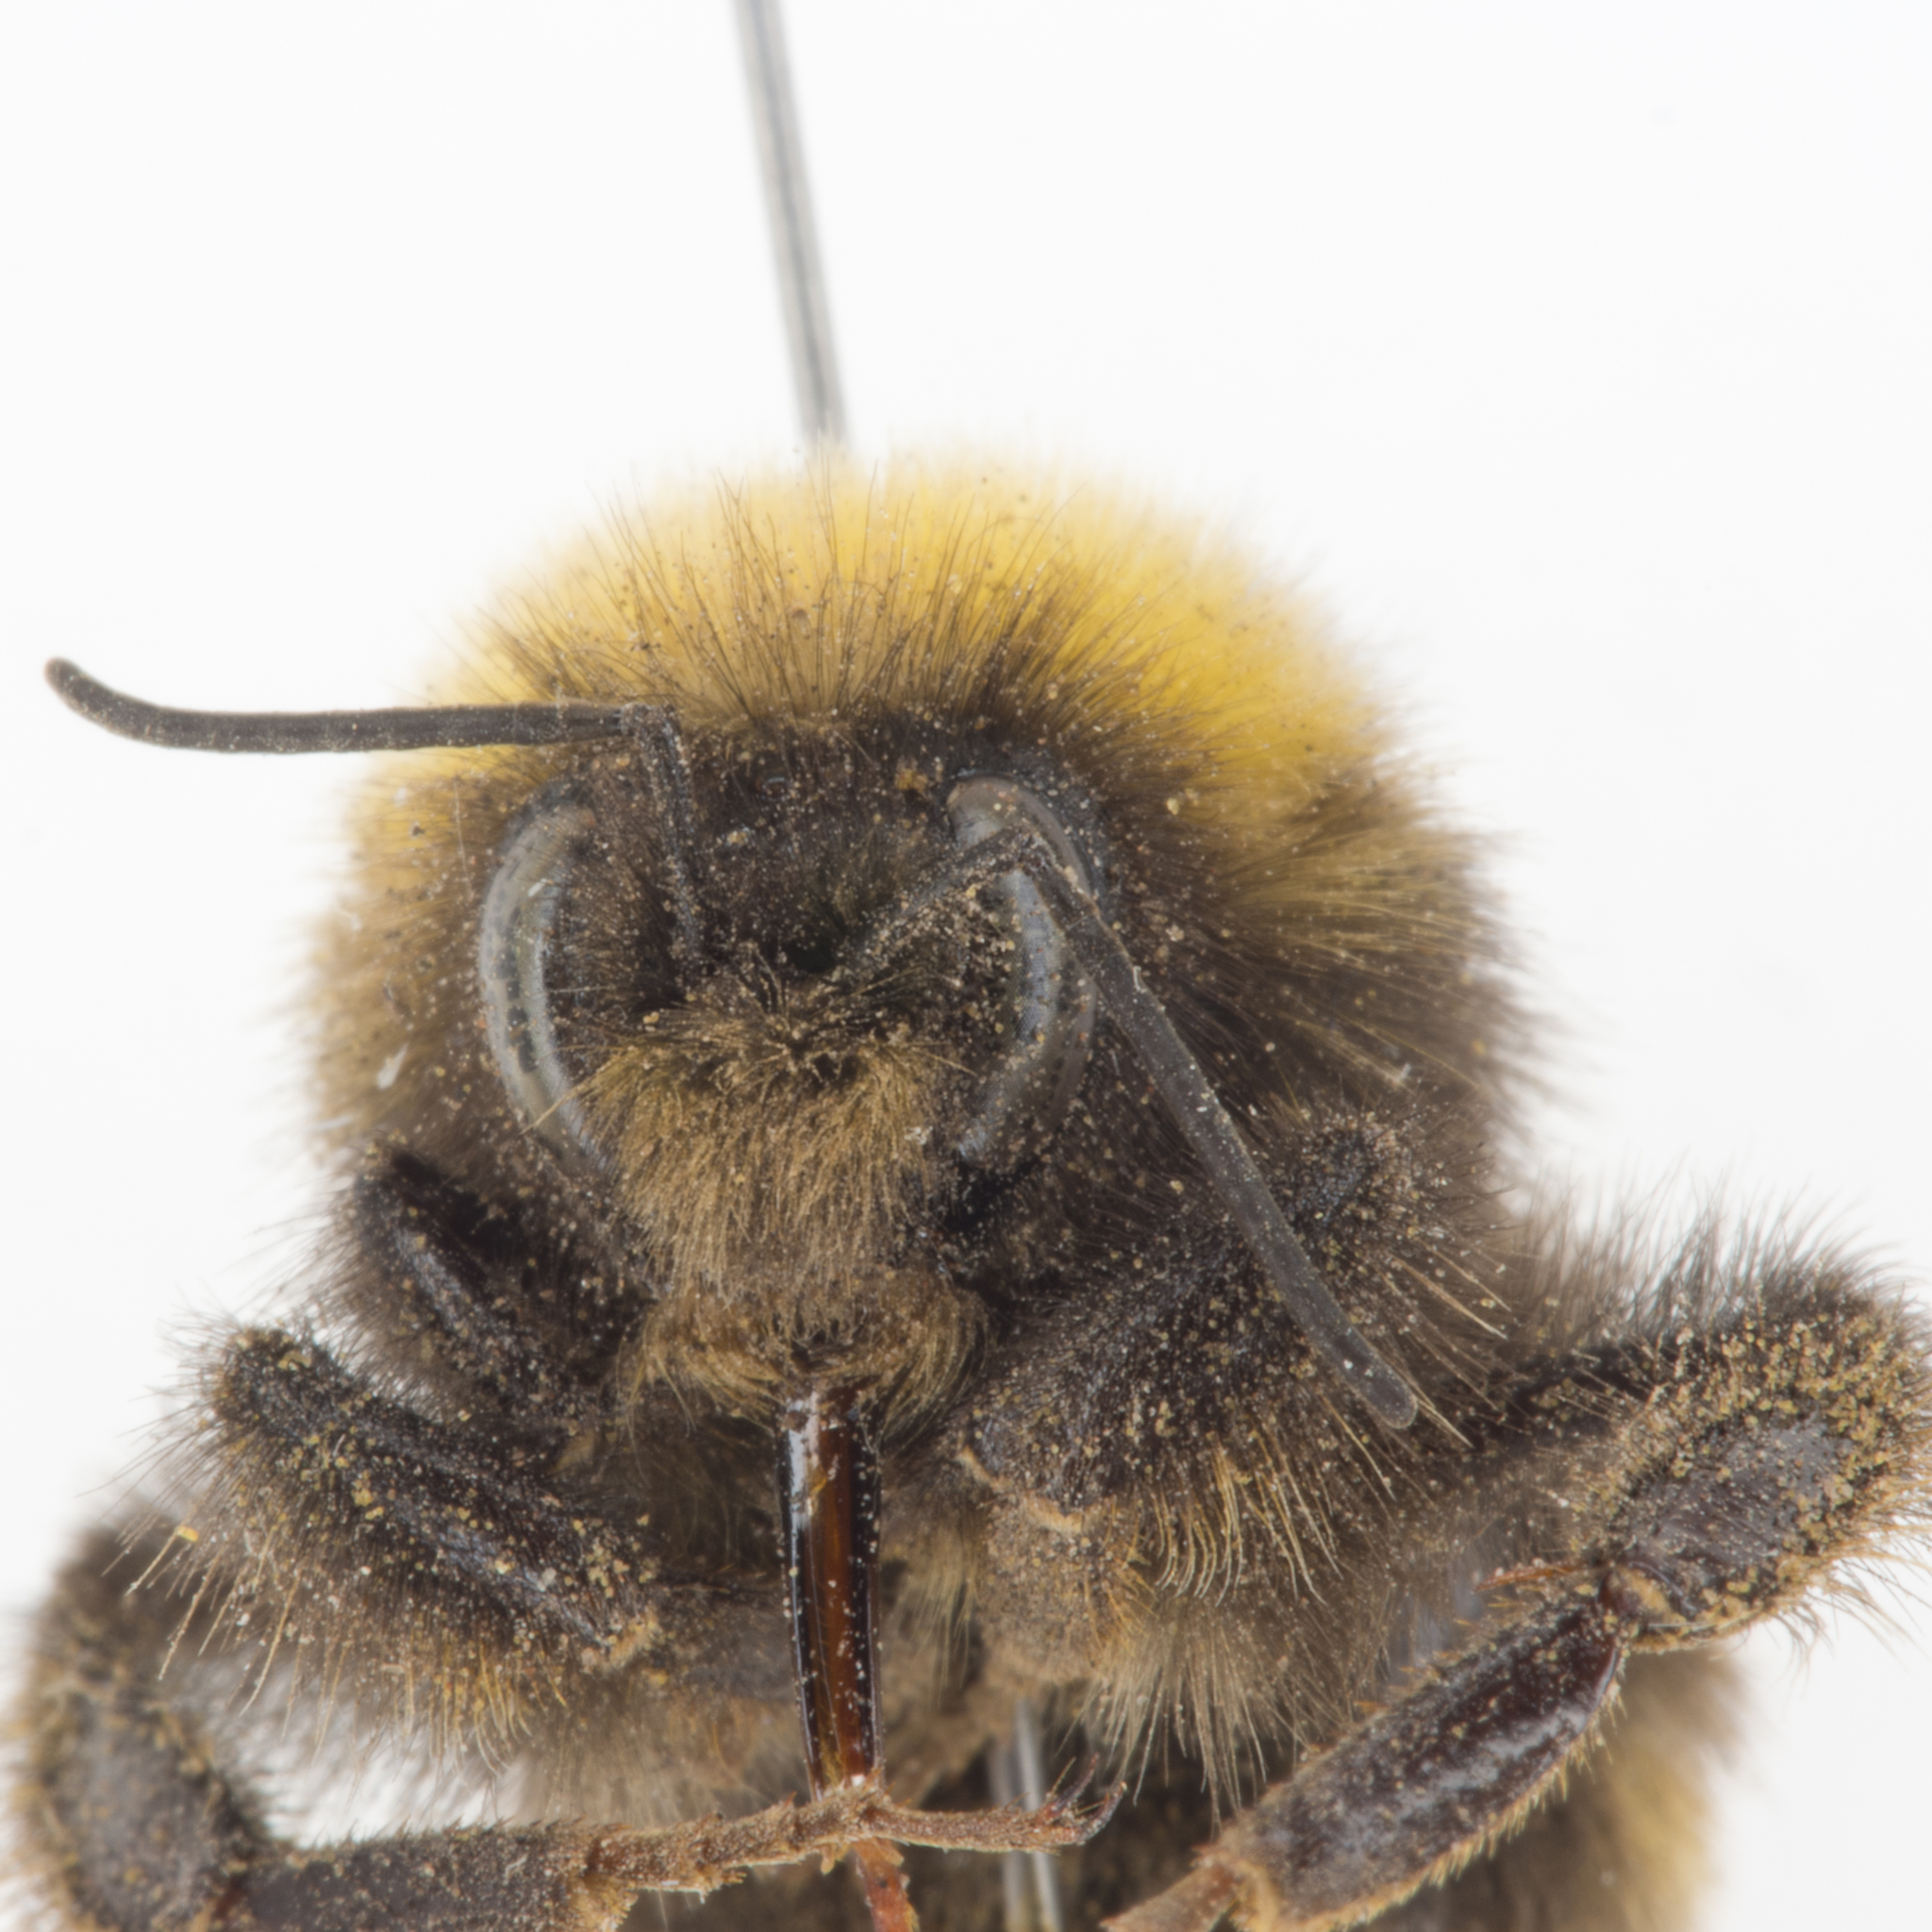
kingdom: Animalia
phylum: Arthropoda
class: Insecta
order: Hymenoptera
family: Apidae
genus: Bombus
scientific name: Bombus occidentalis
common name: Western bumble bee
